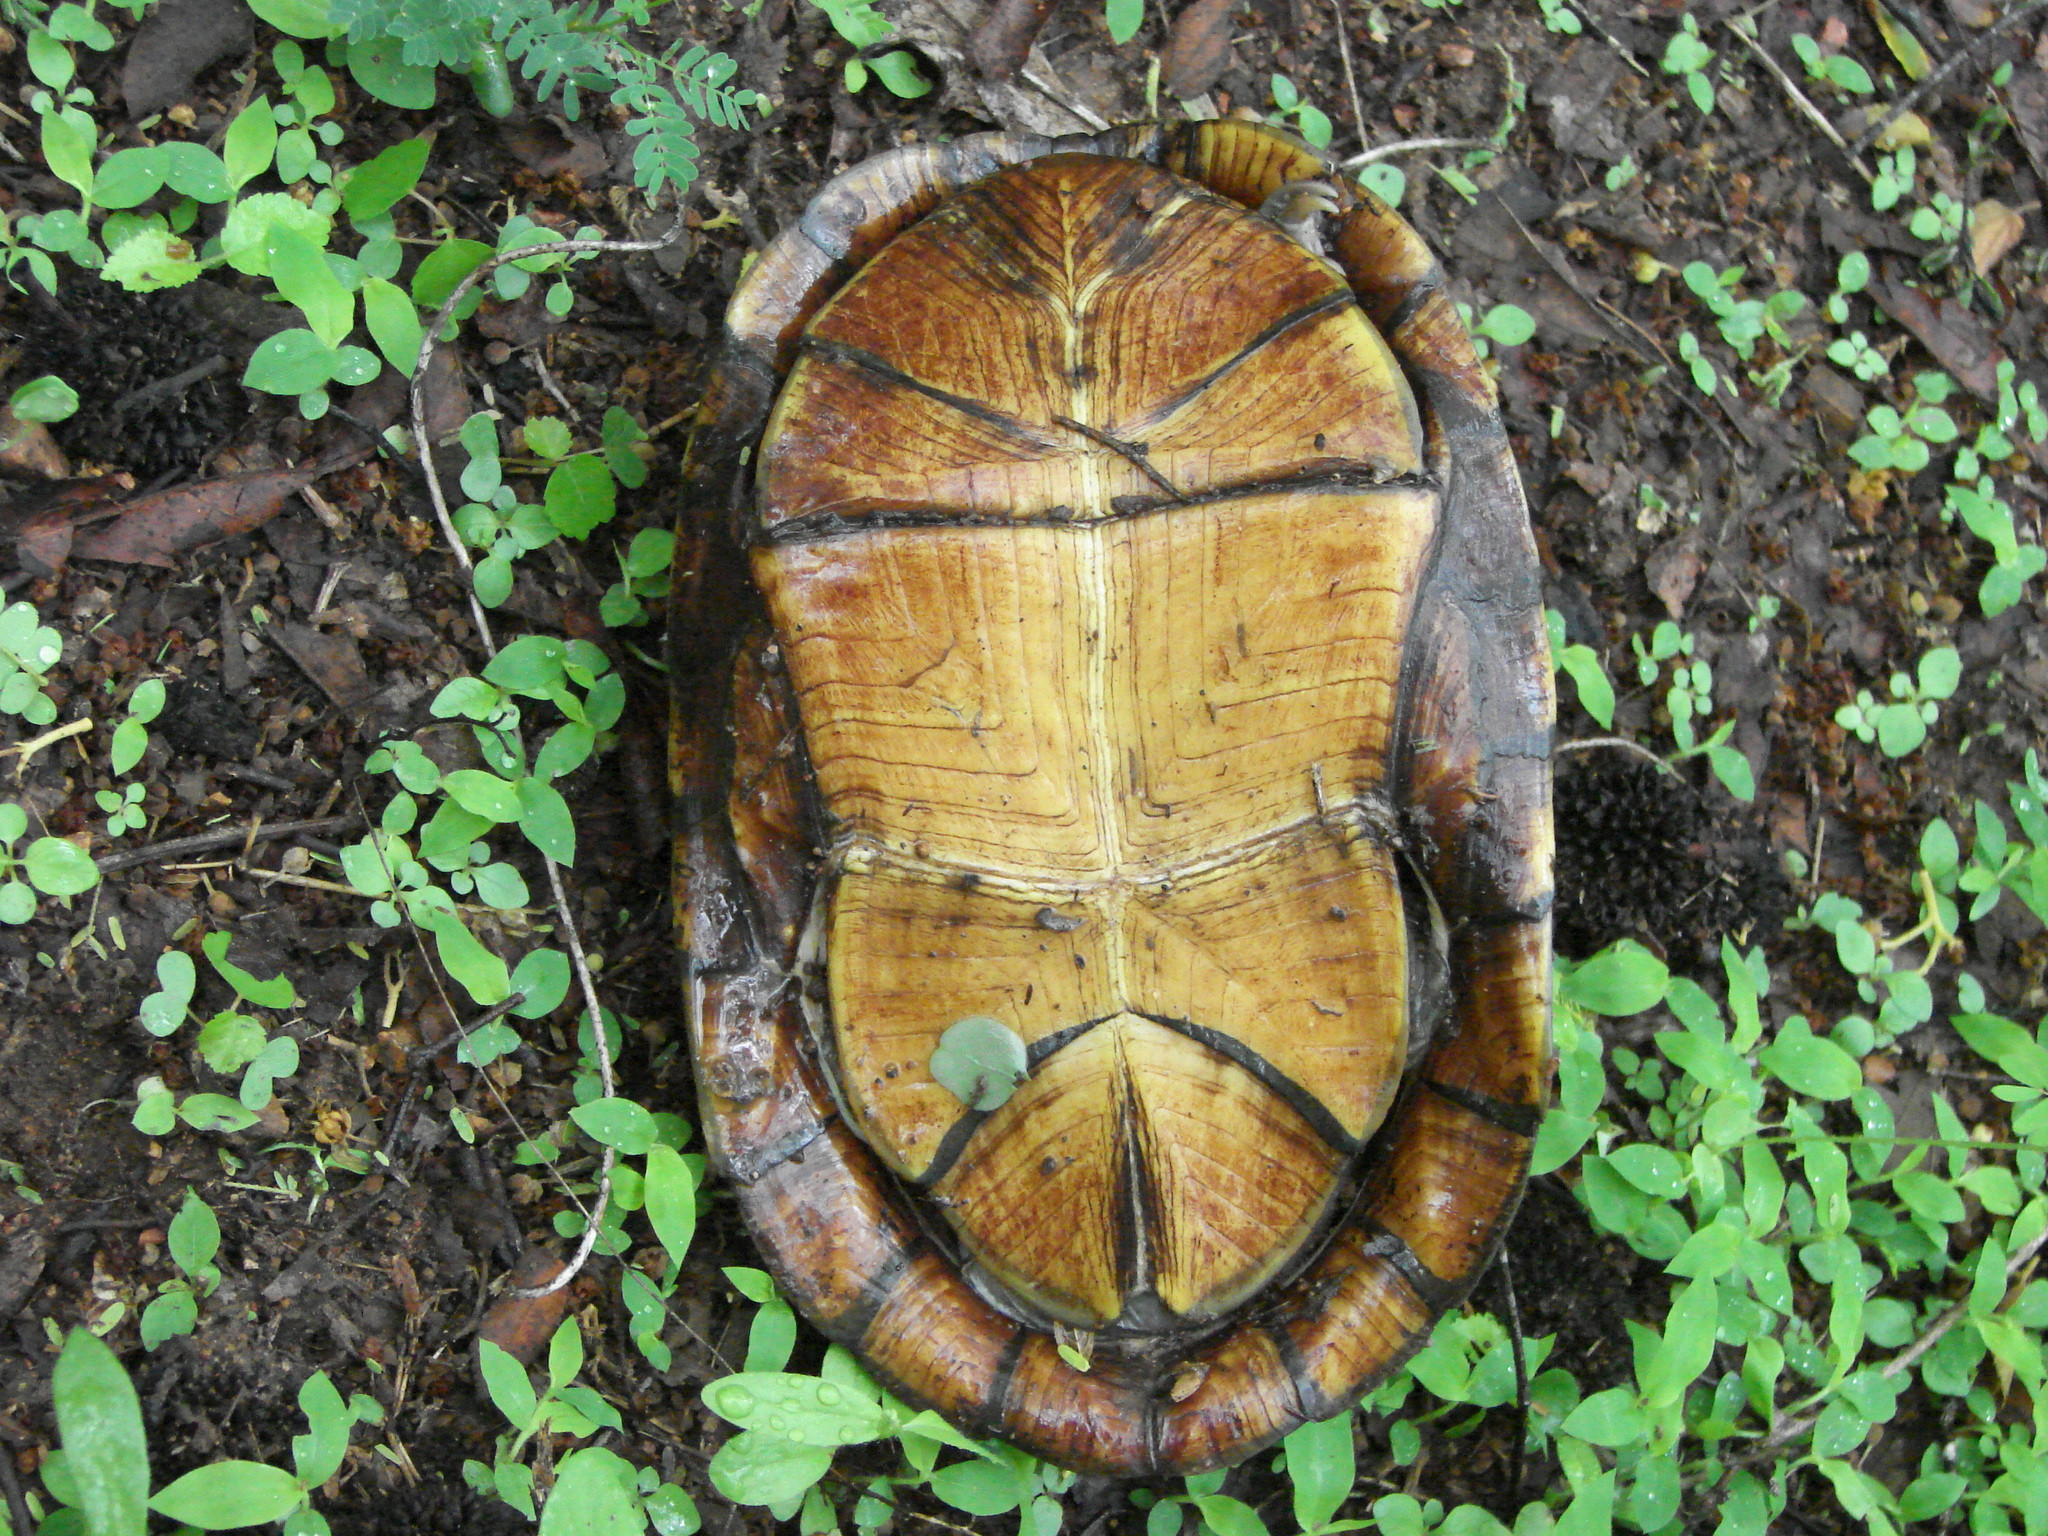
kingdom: Animalia
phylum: Chordata
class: Testudines
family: Kinosternidae
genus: Kinosternon
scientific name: Kinosternon integrum
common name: Mexican mud turtle
